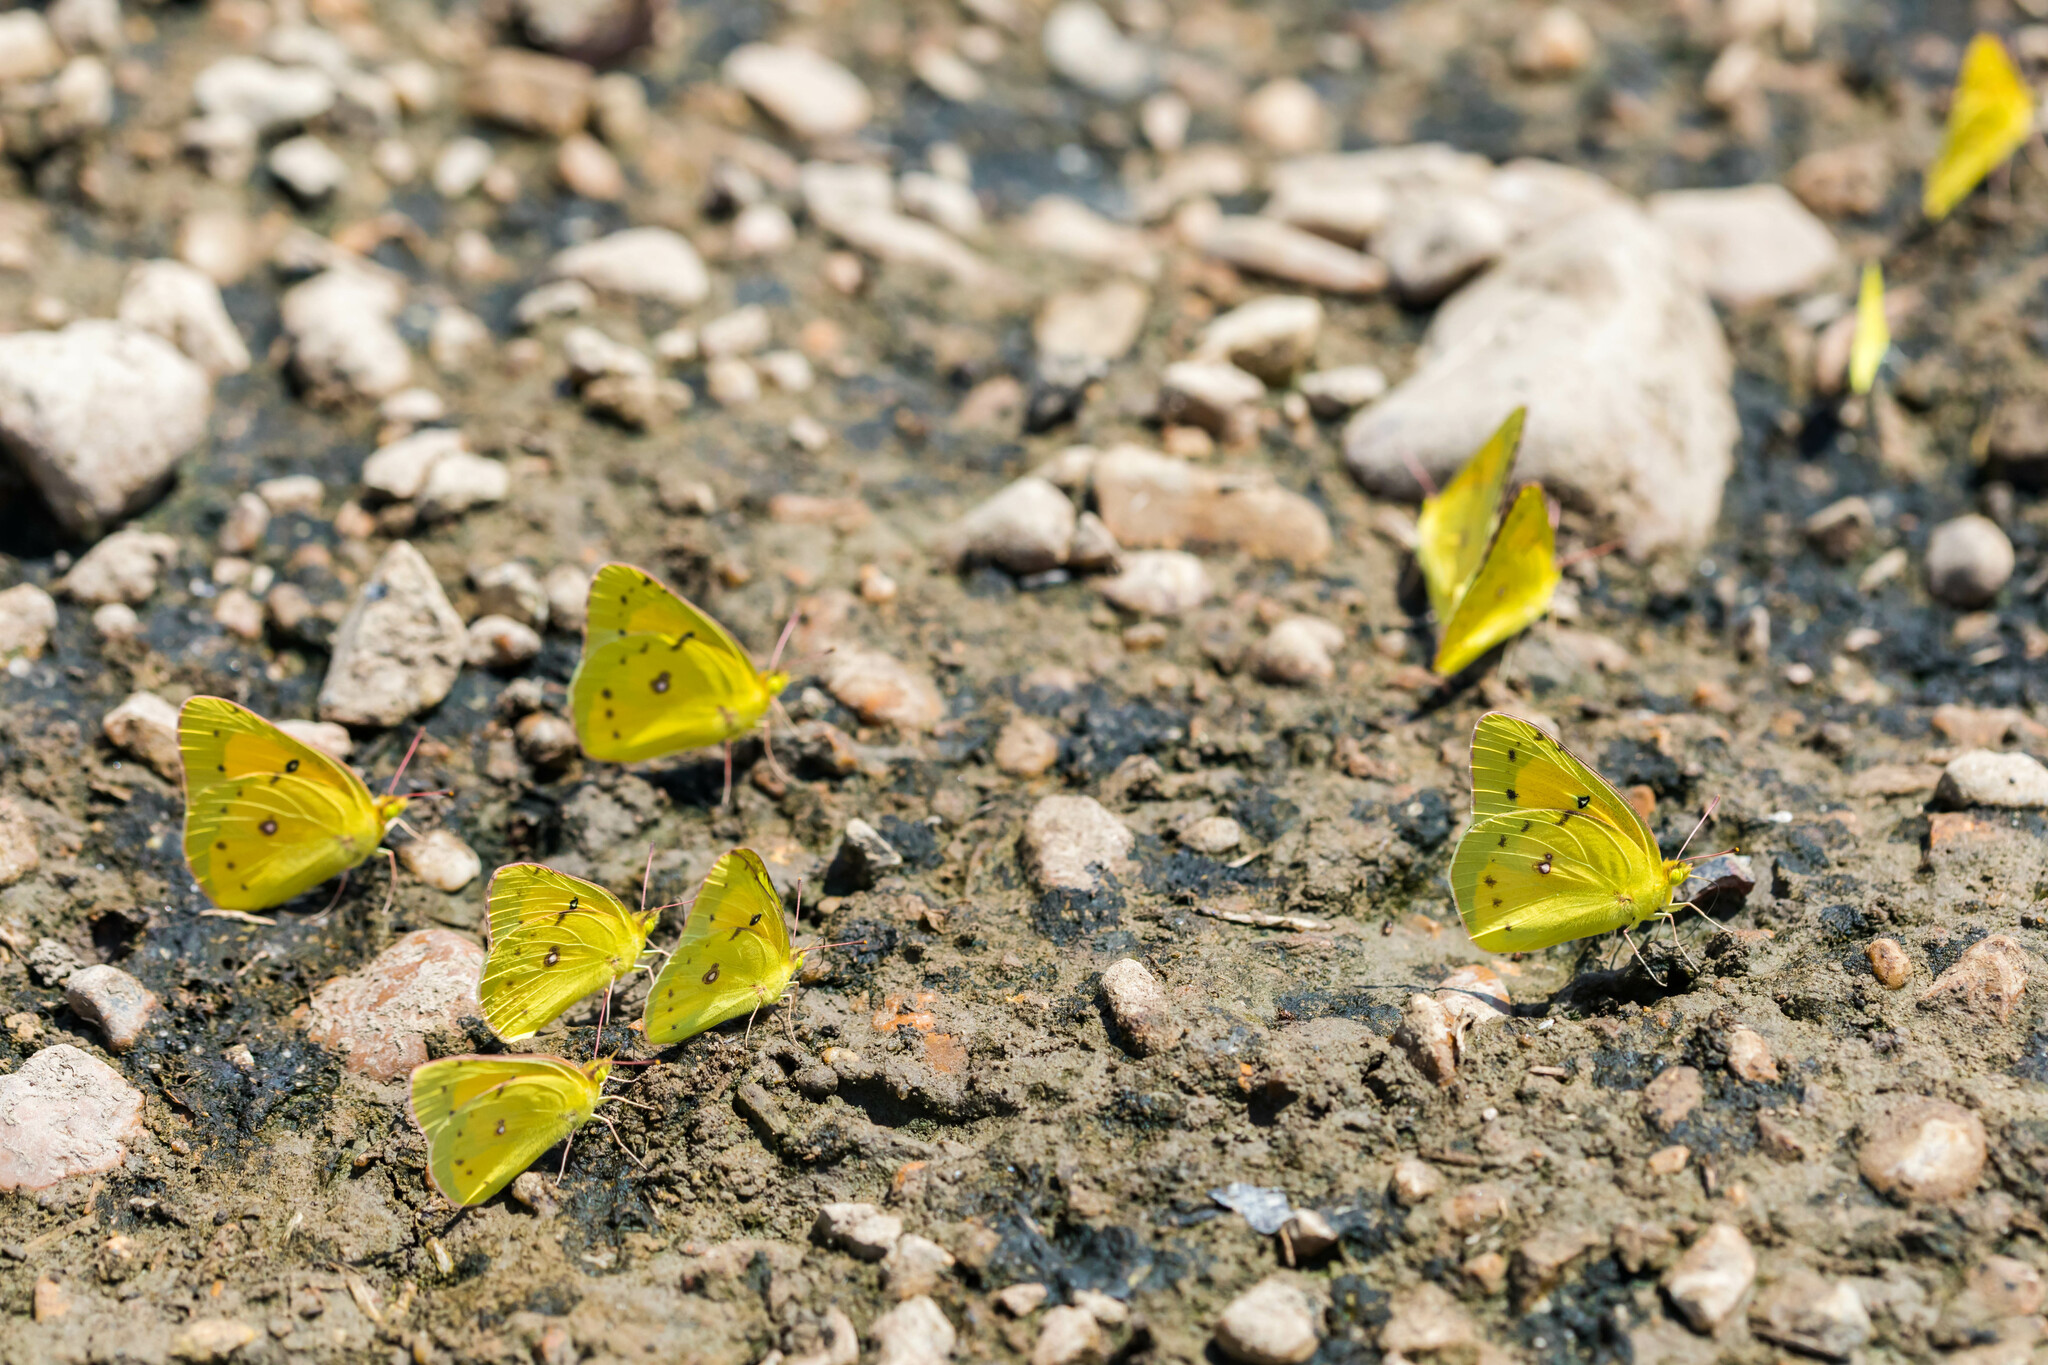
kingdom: Animalia
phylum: Arthropoda
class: Insecta
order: Lepidoptera
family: Pieridae
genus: Colias
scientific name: Colias eurytheme
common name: Alfalfa butterfly
